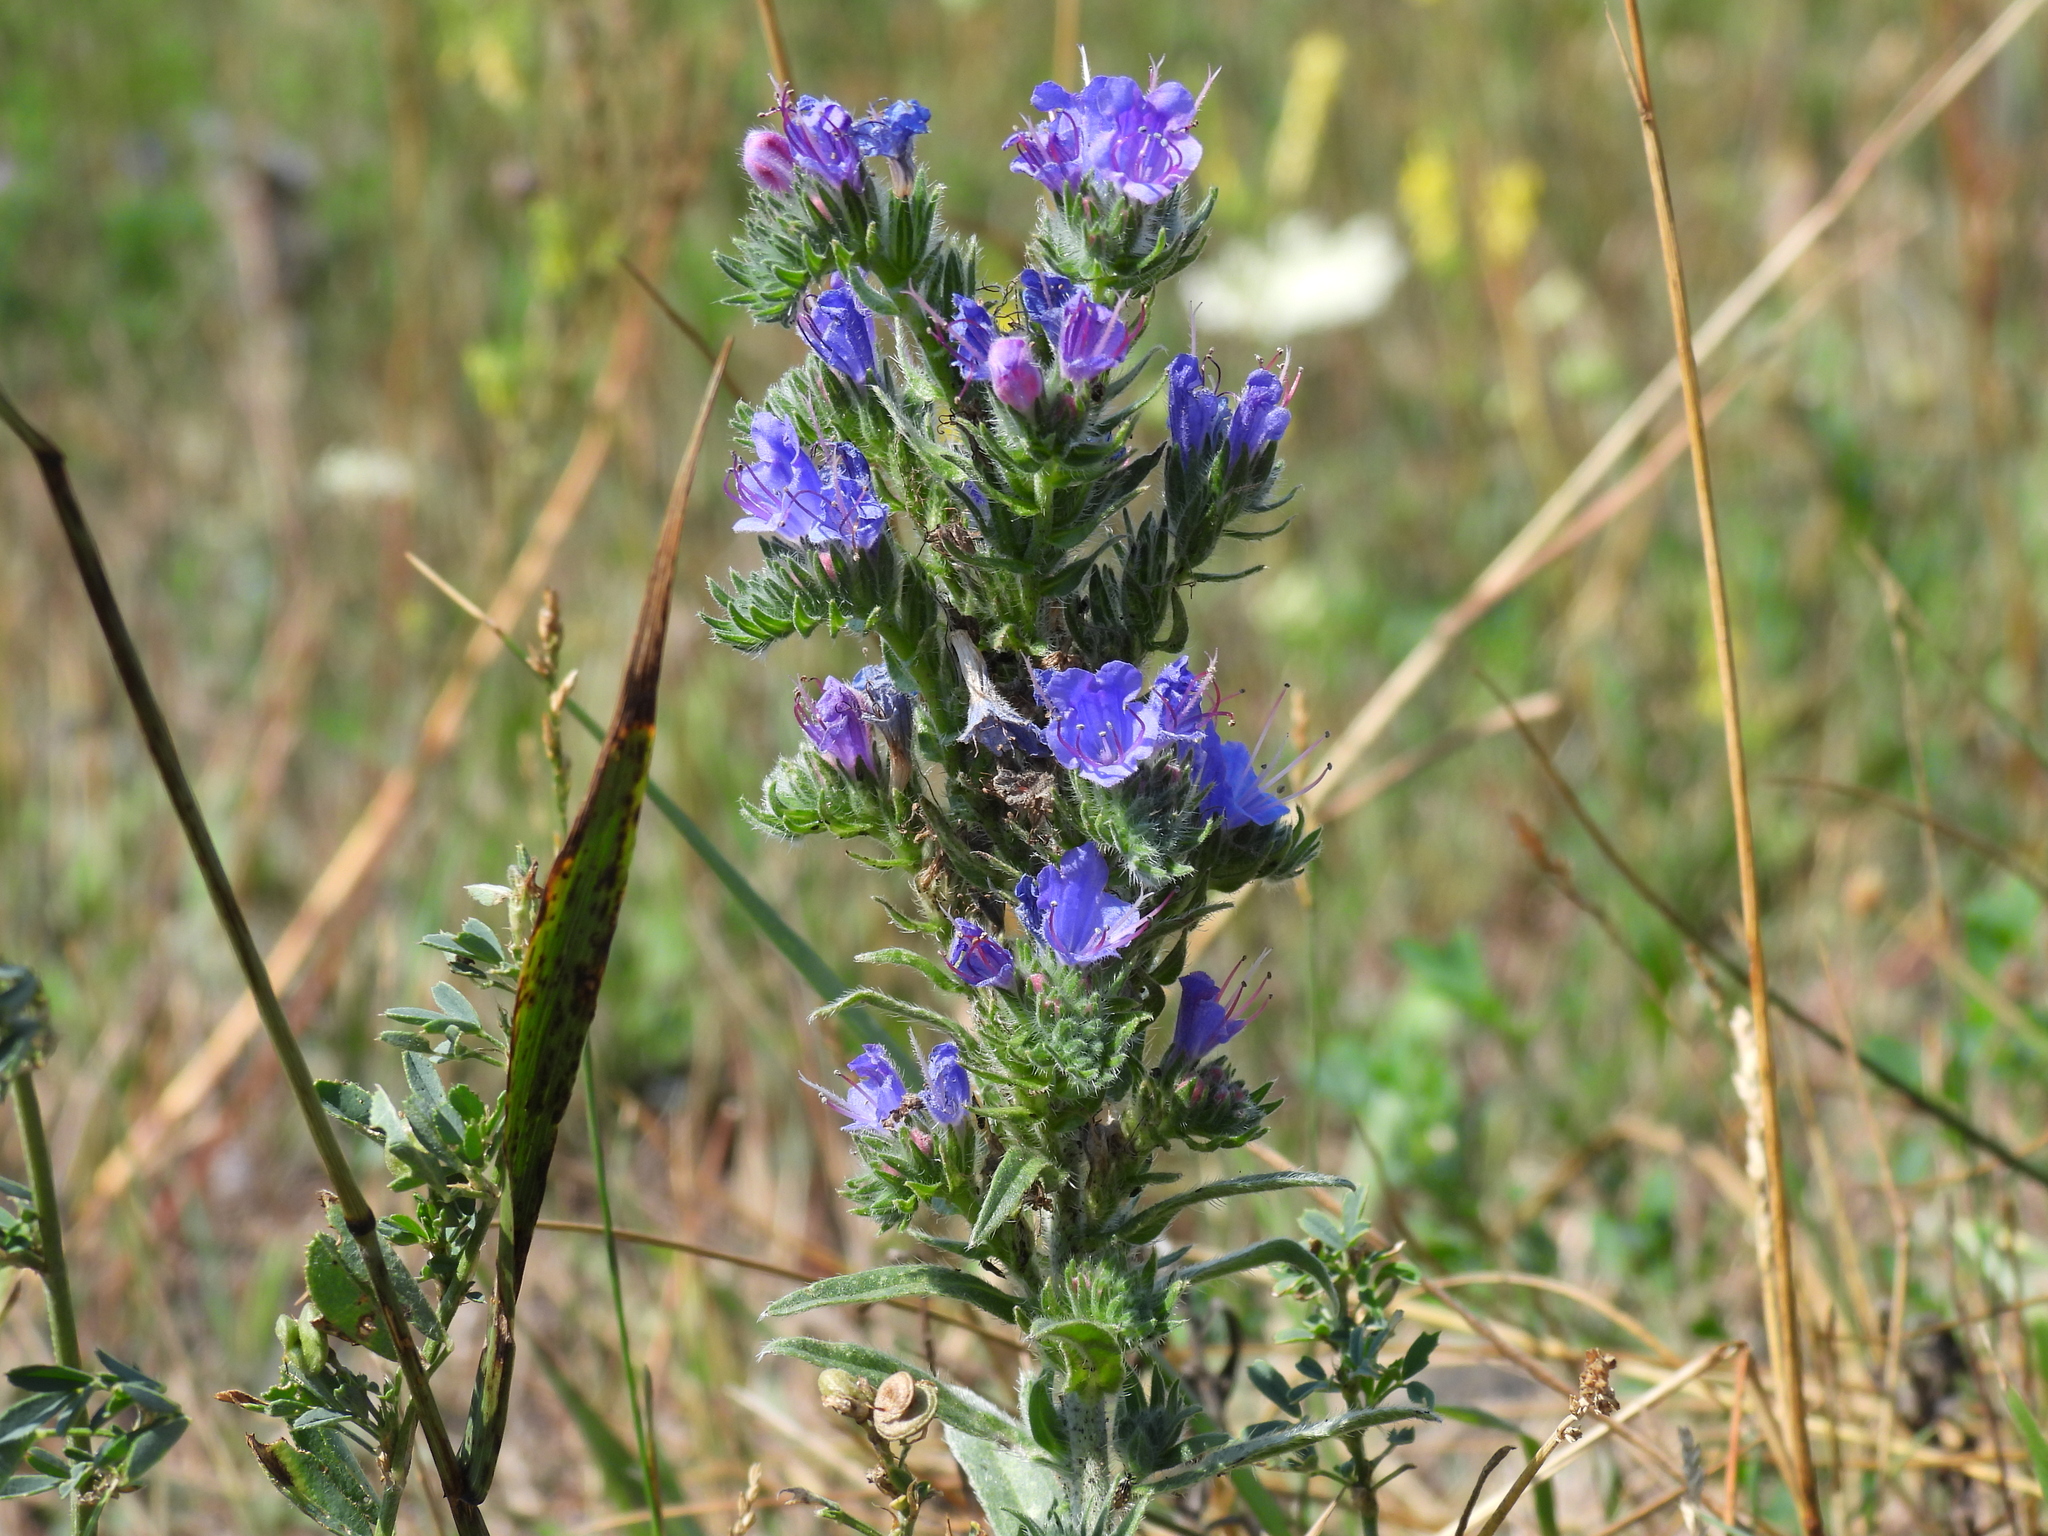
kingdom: Plantae
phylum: Tracheophyta
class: Magnoliopsida
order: Boraginales
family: Boraginaceae
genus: Echium
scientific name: Echium vulgare
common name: Common viper's bugloss
